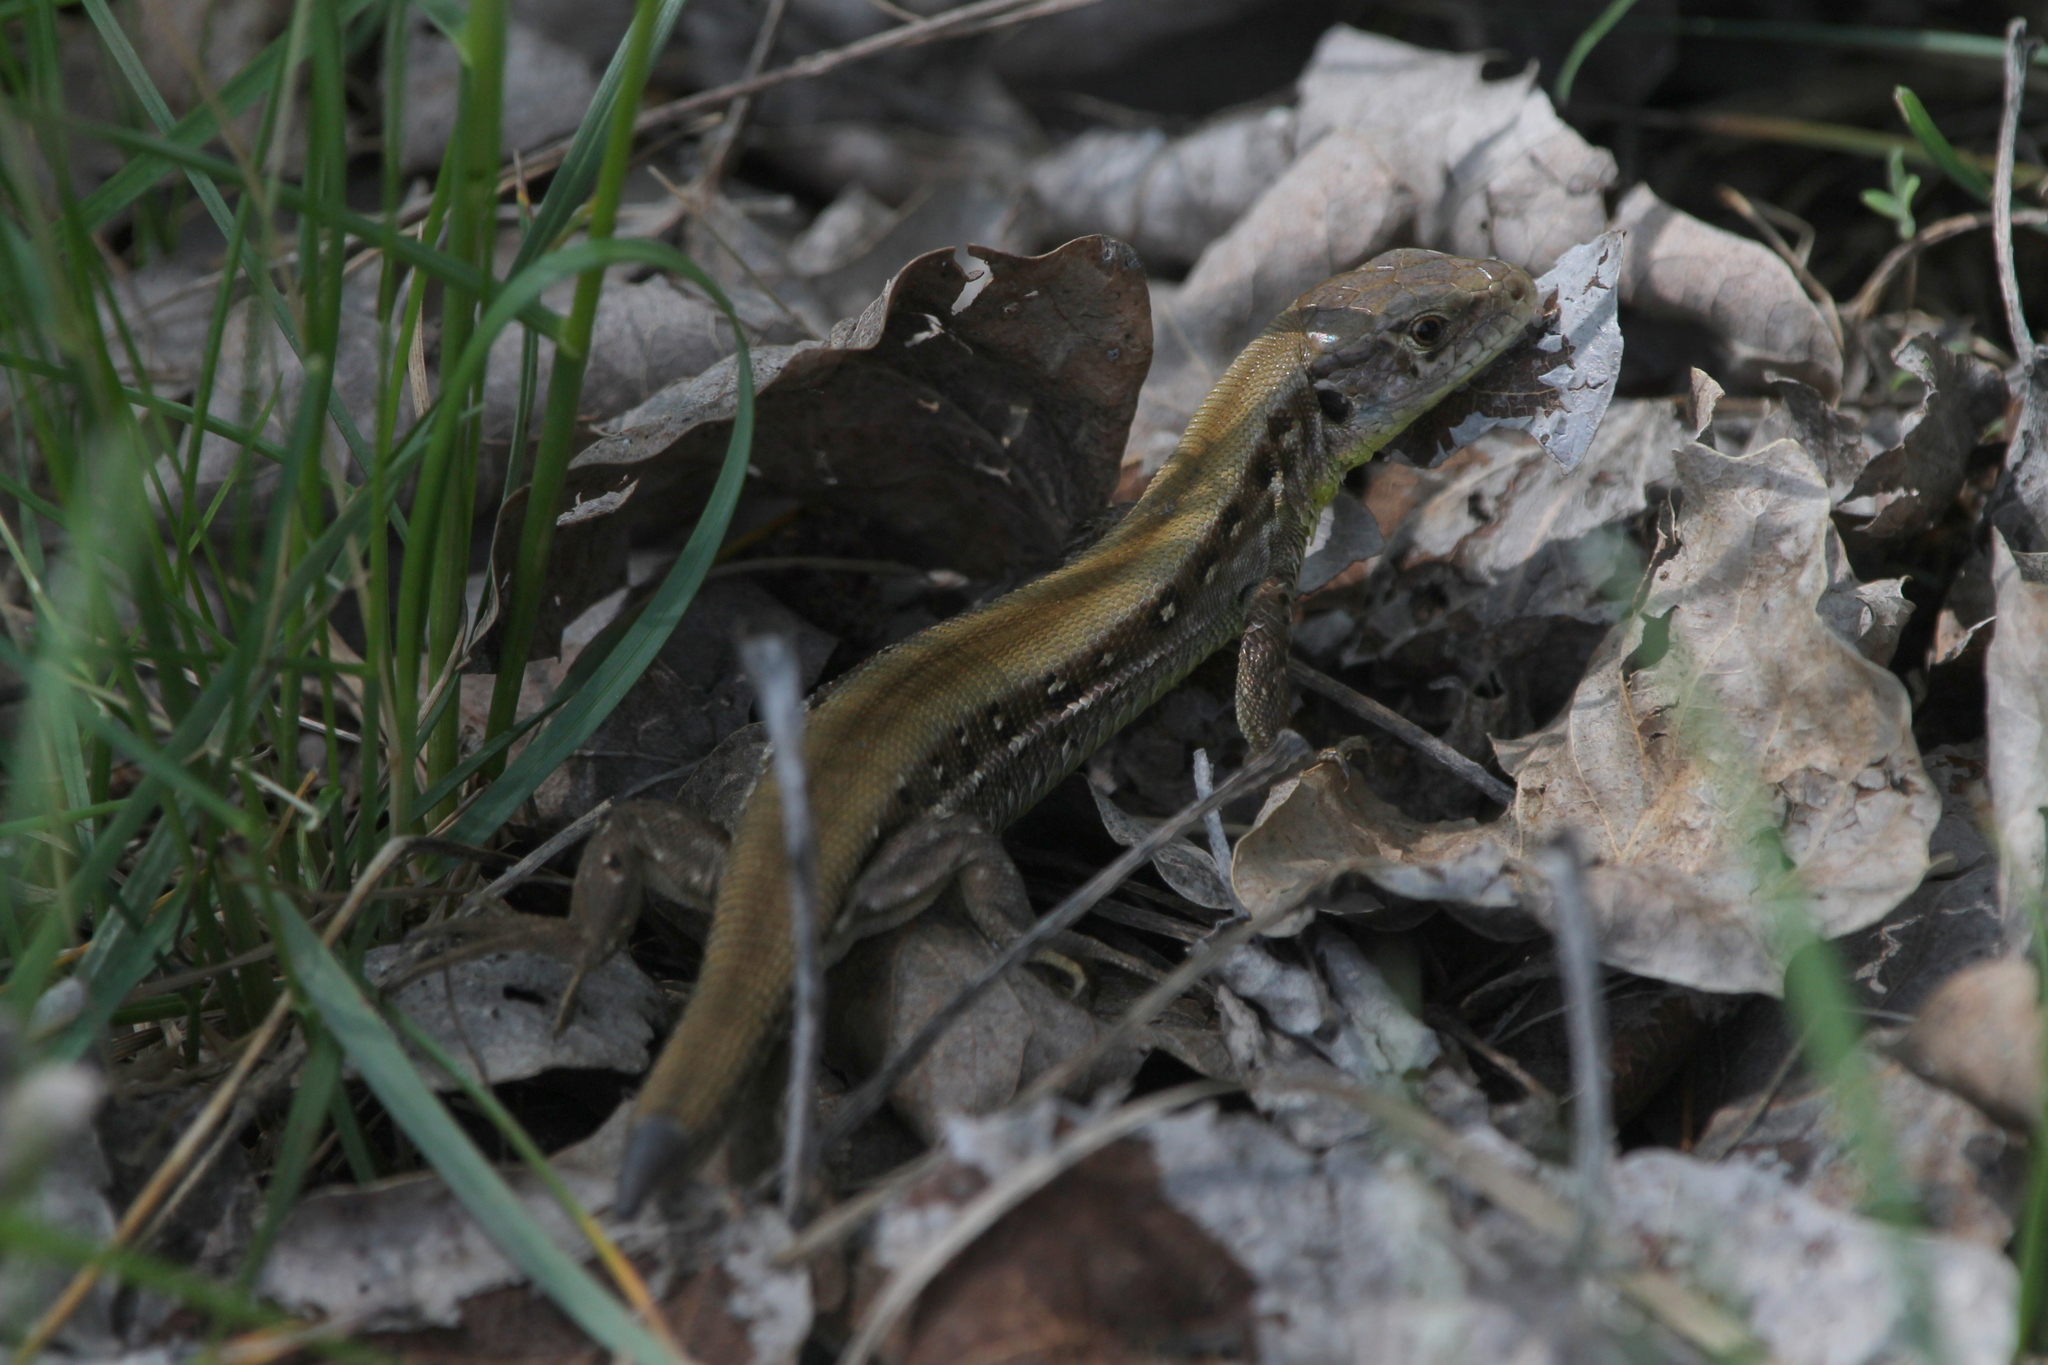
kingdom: Animalia
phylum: Chordata
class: Squamata
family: Lacertidae
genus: Lacerta
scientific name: Lacerta agilis
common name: Sand lizard
